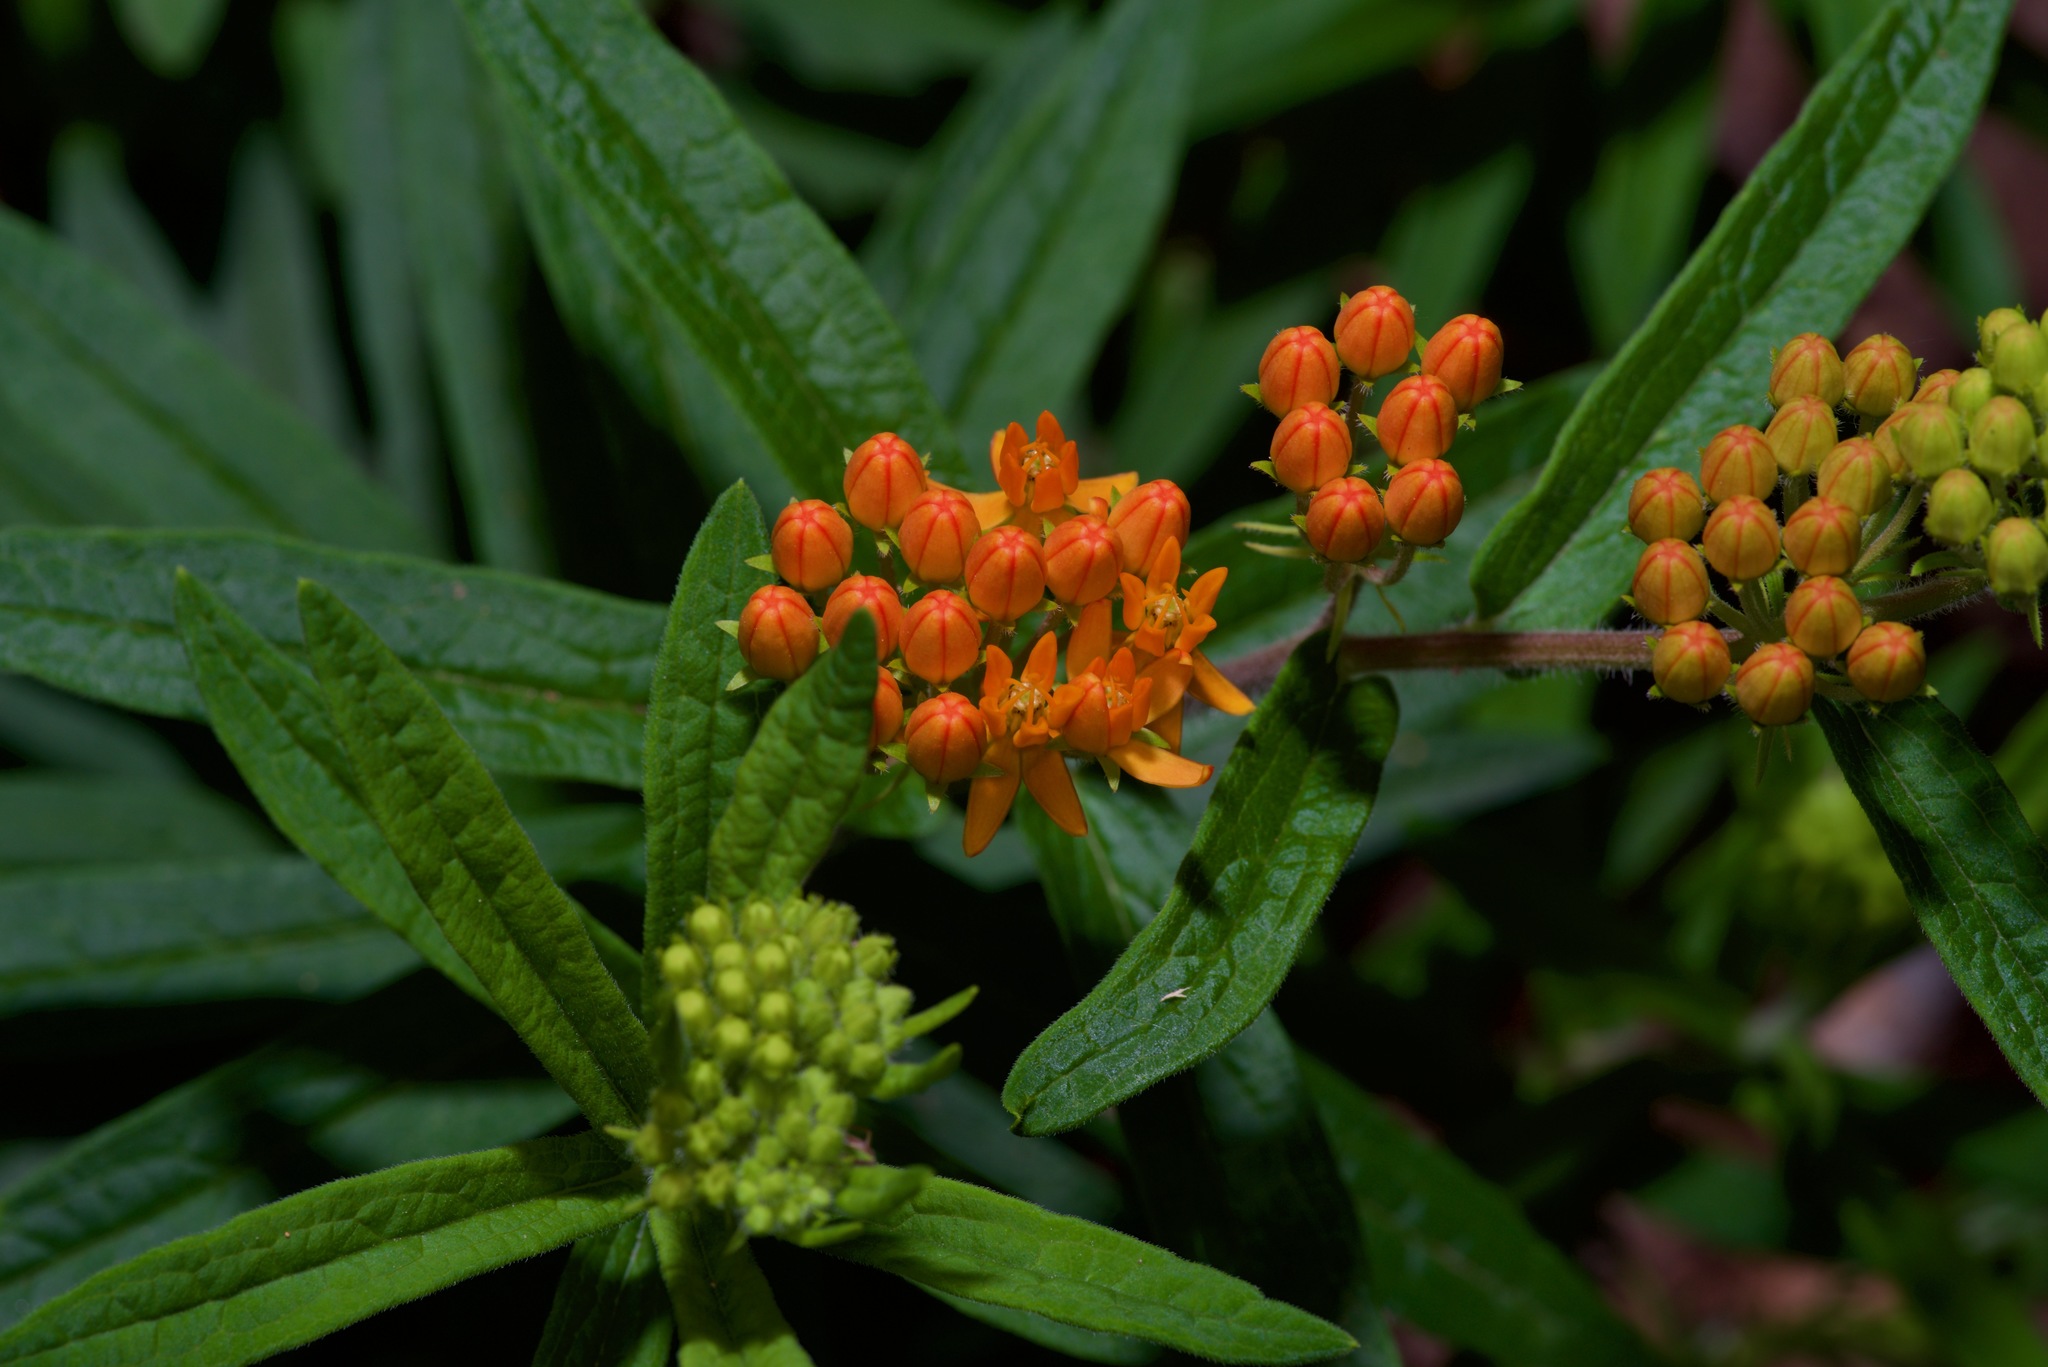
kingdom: Plantae
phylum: Tracheophyta
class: Magnoliopsida
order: Gentianales
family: Apocynaceae
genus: Asclepias
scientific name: Asclepias tuberosa
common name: Butterfly milkweed
